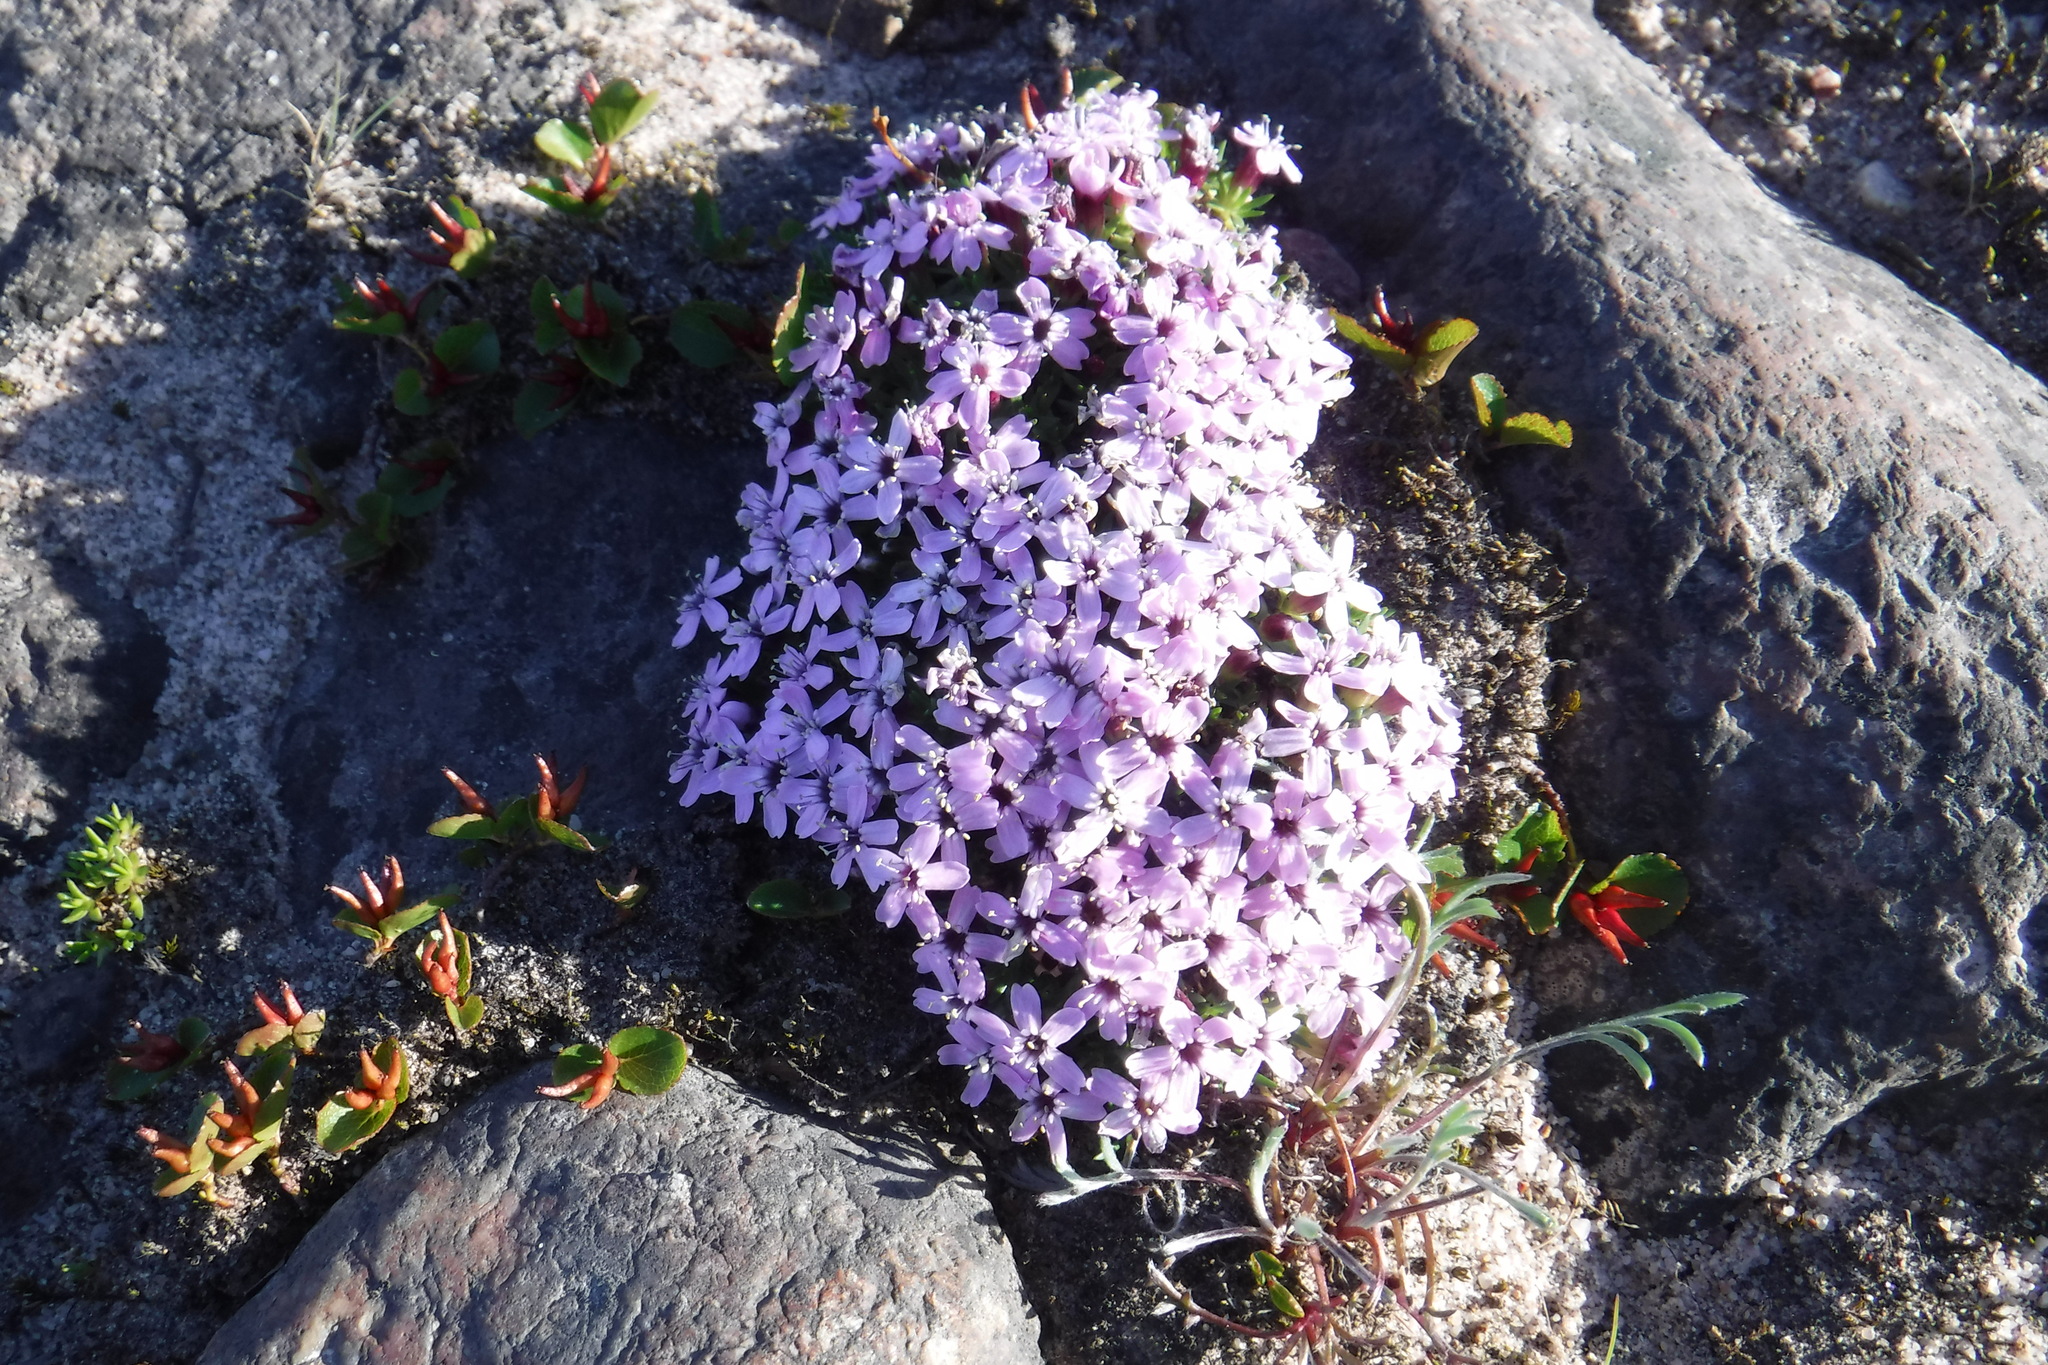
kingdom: Plantae
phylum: Tracheophyta
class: Magnoliopsida
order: Caryophyllales
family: Caryophyllaceae
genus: Silene
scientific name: Silene acaulis
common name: Moss campion
